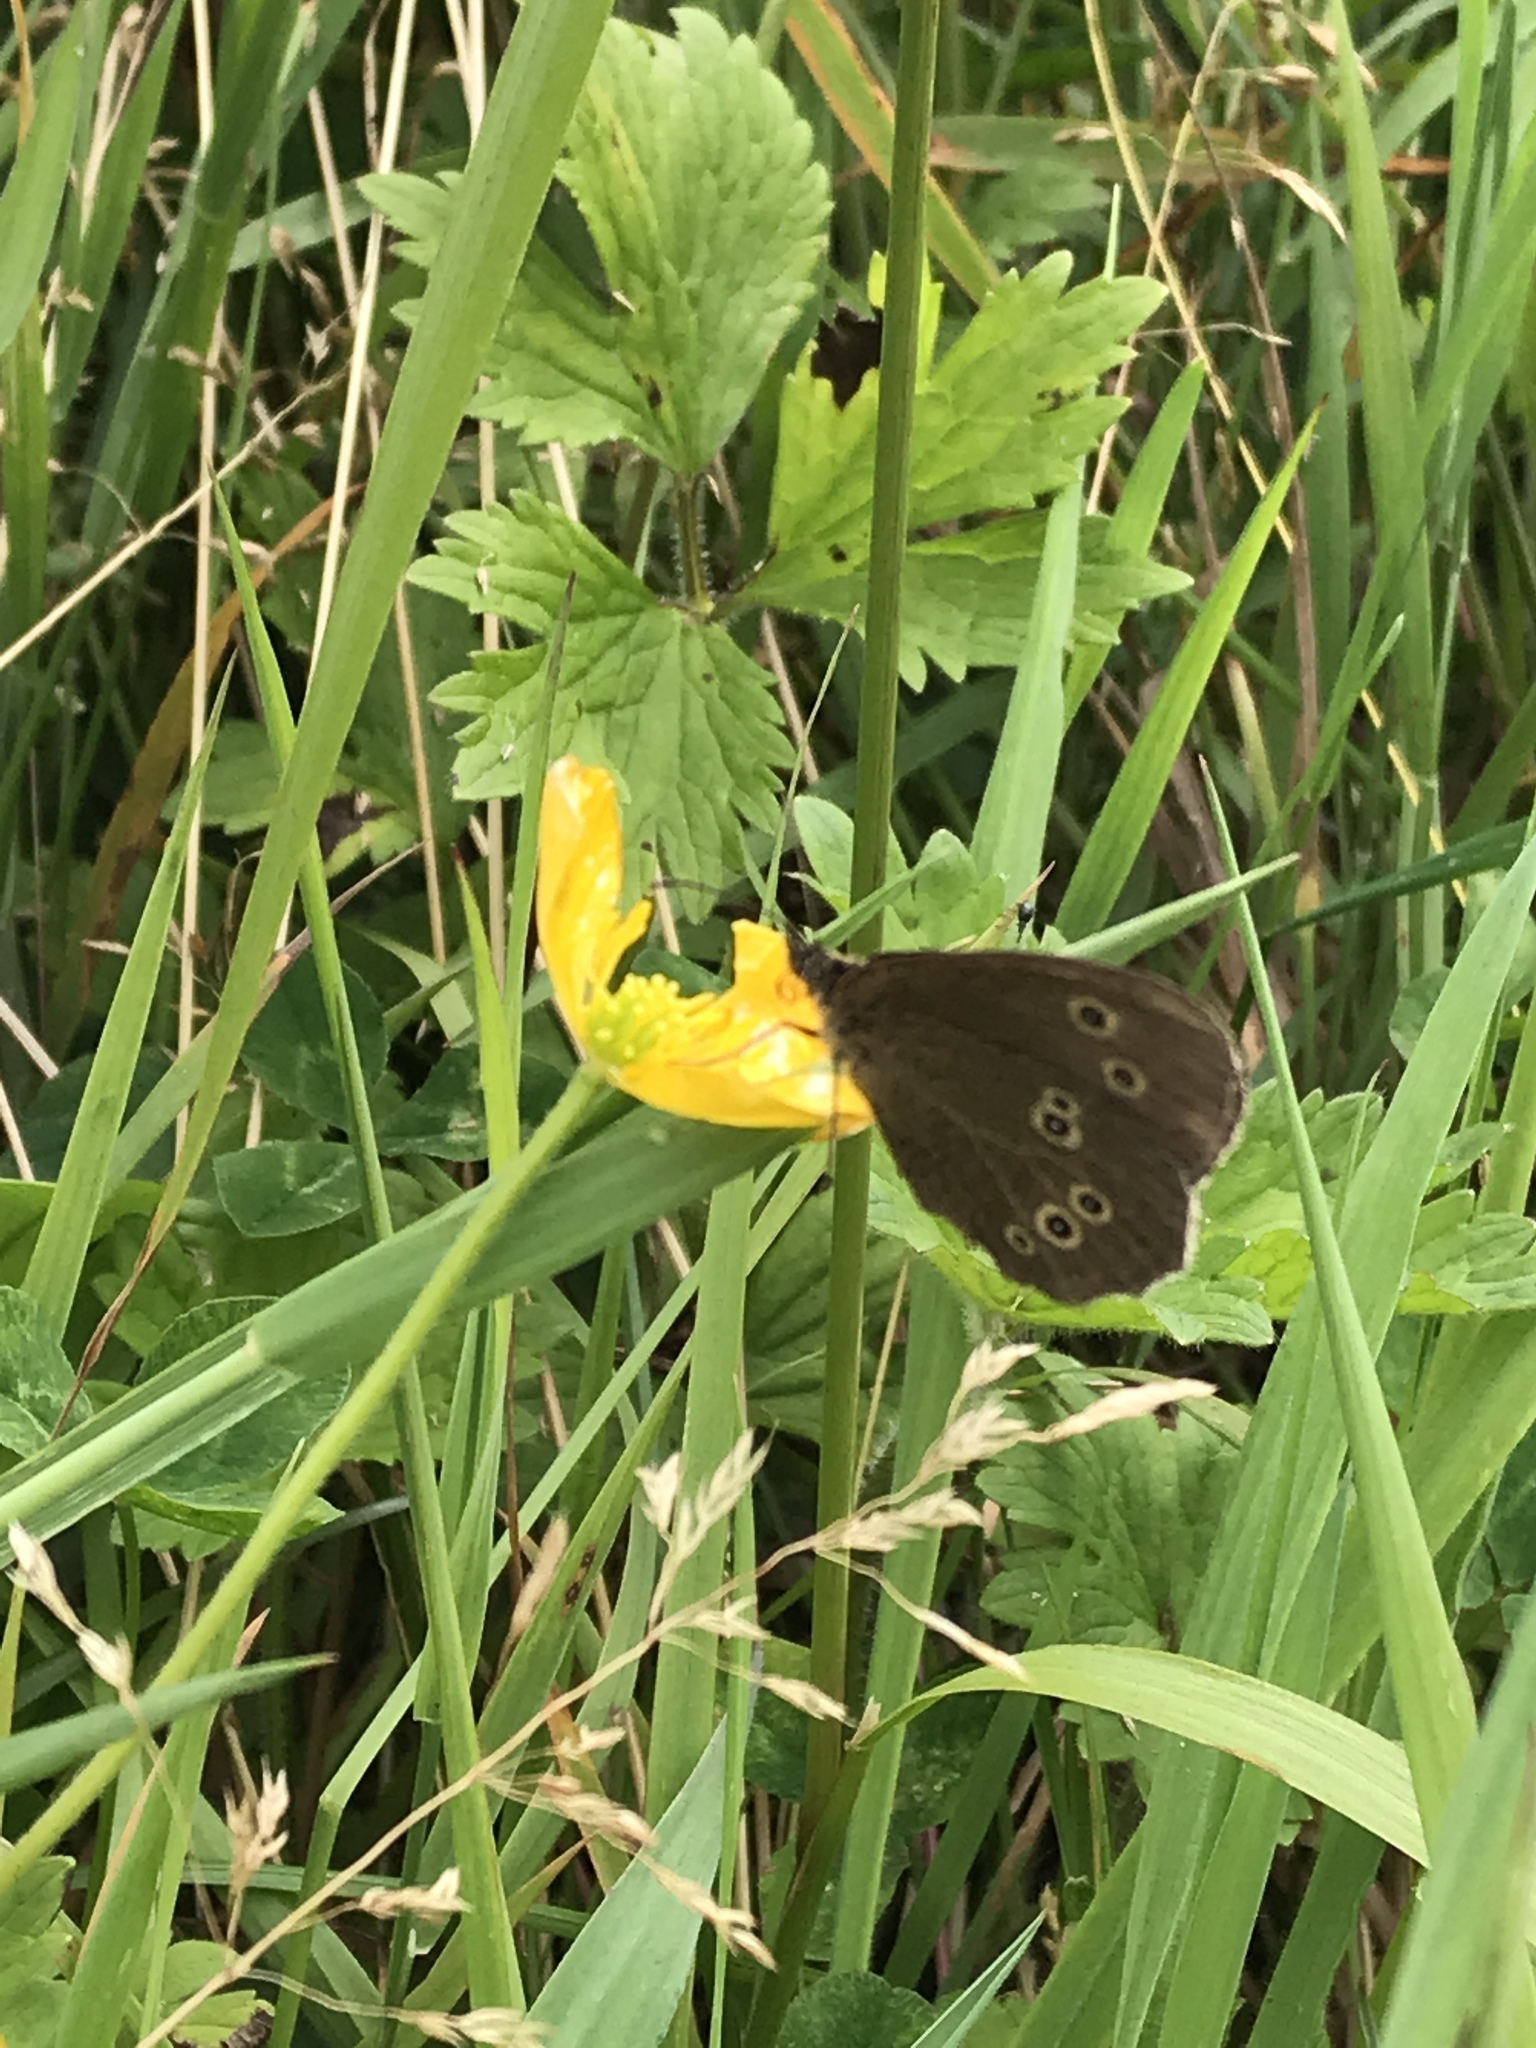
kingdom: Animalia
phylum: Arthropoda
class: Insecta
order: Lepidoptera
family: Nymphalidae
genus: Aphantopus
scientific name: Aphantopus hyperantus
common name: Ringlet
